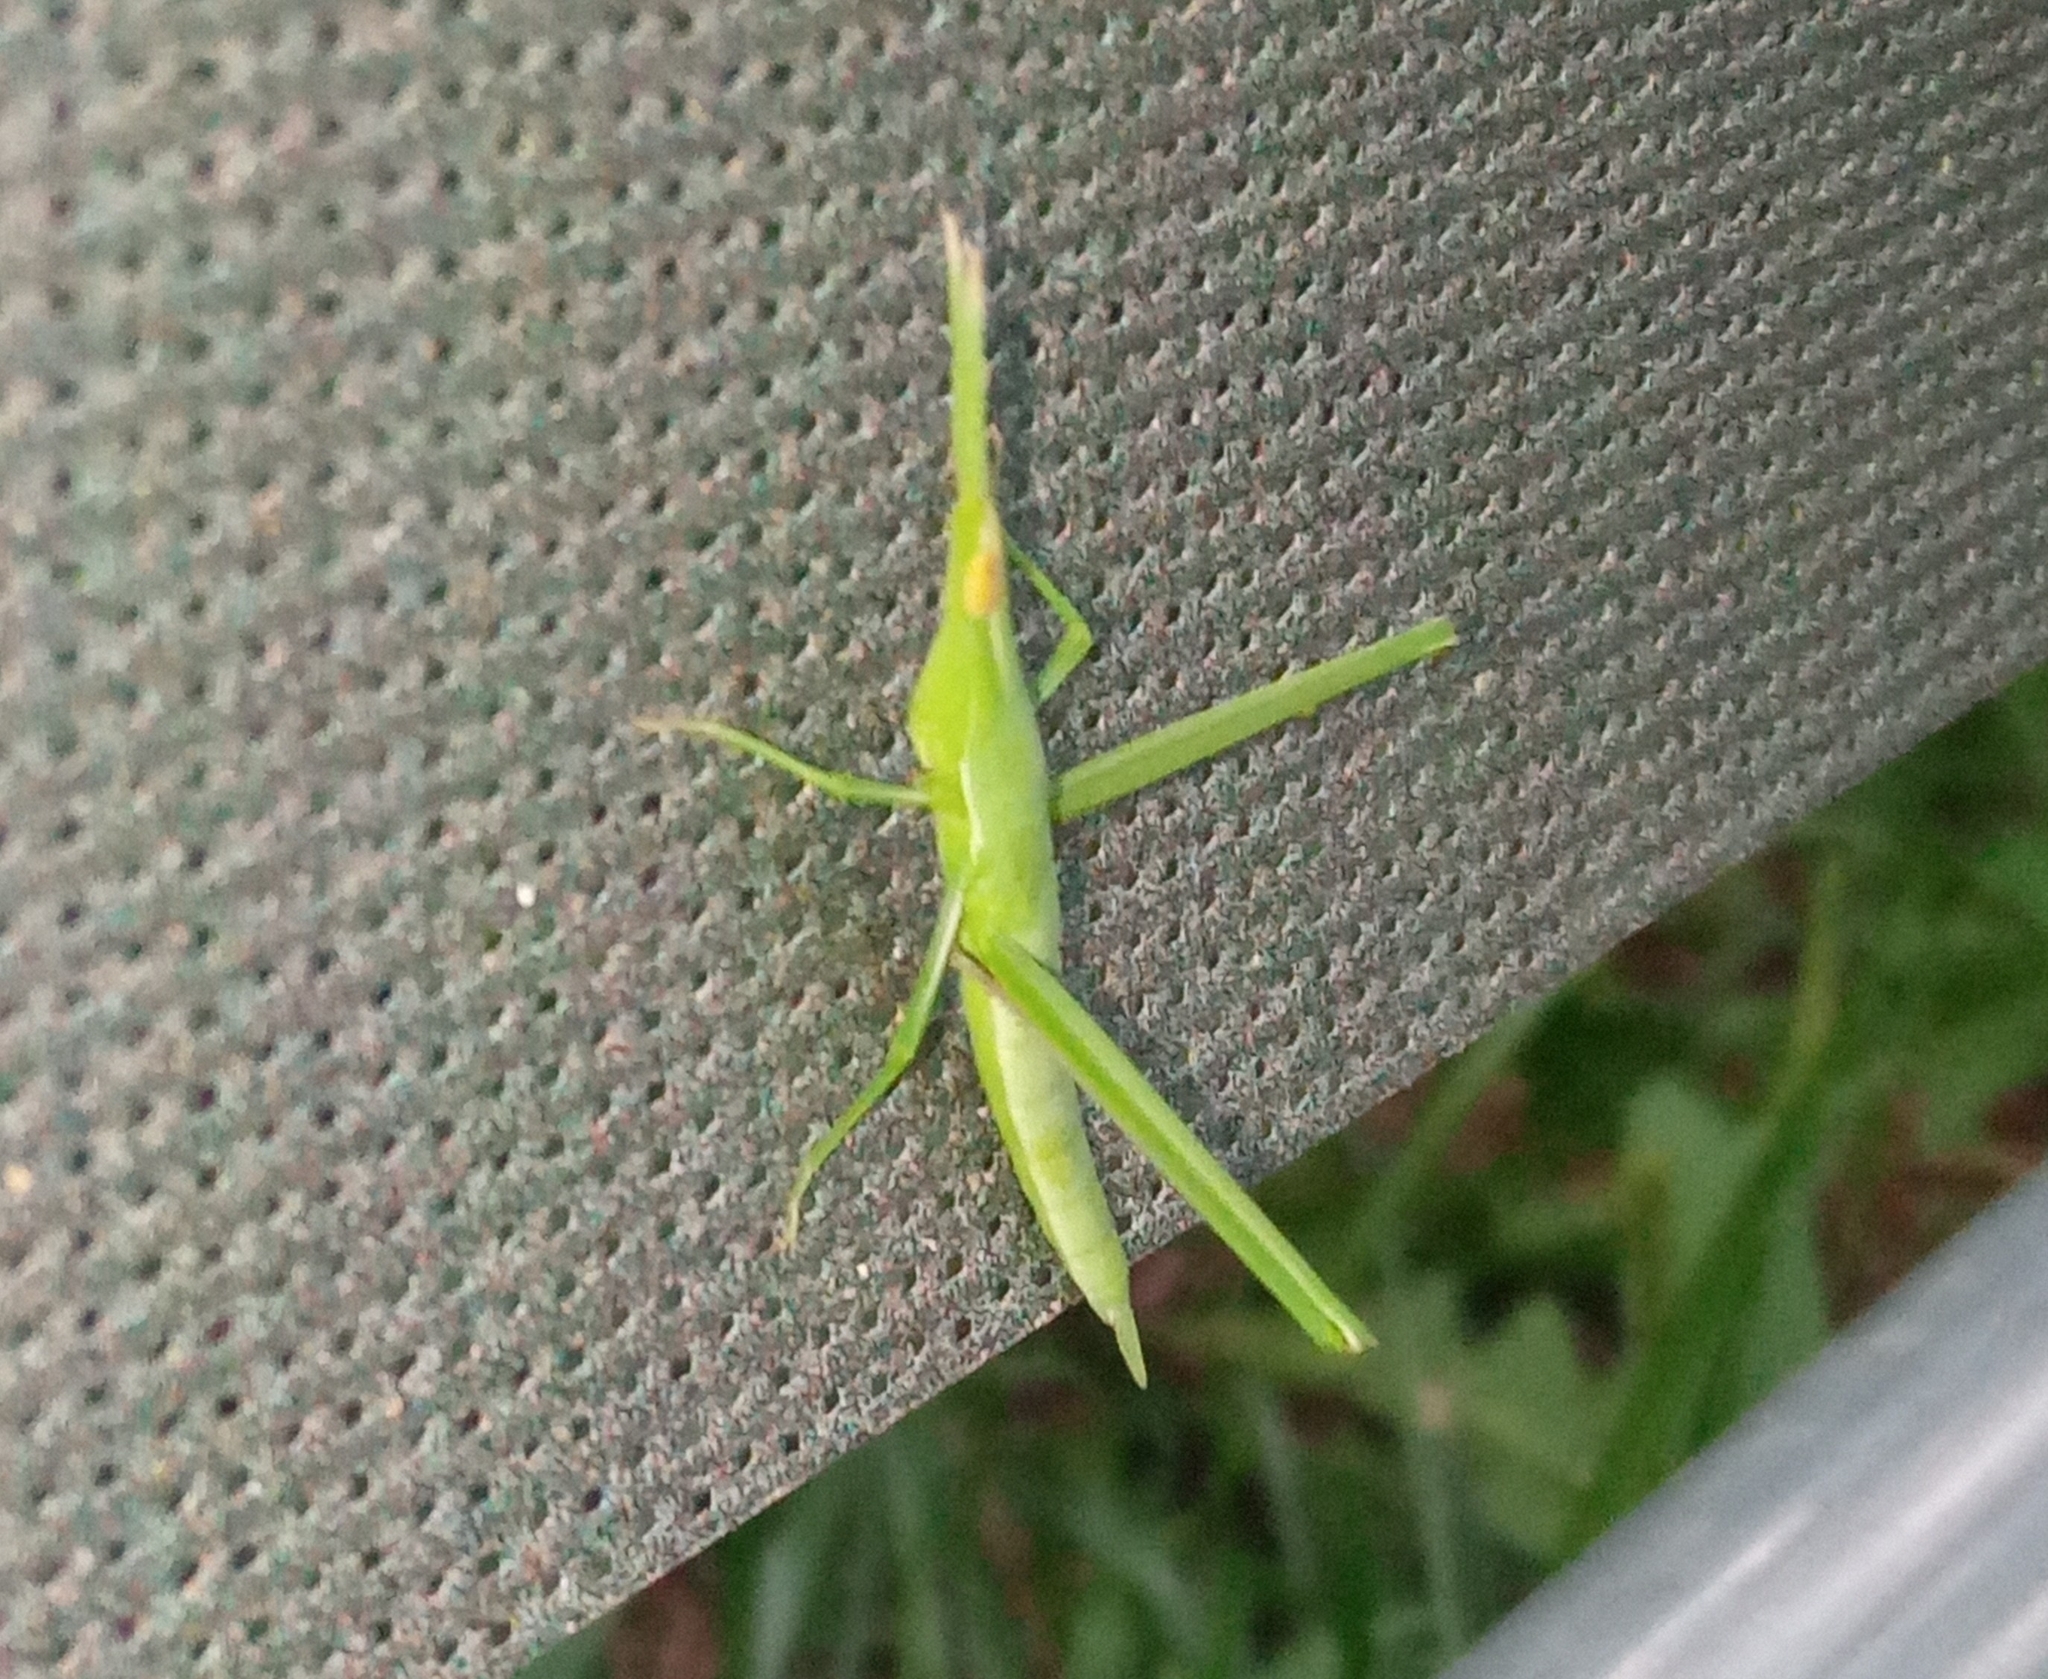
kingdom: Animalia
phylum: Arthropoda
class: Insecta
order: Orthoptera
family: Acrididae
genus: Acrida
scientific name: Acrida cinerea
